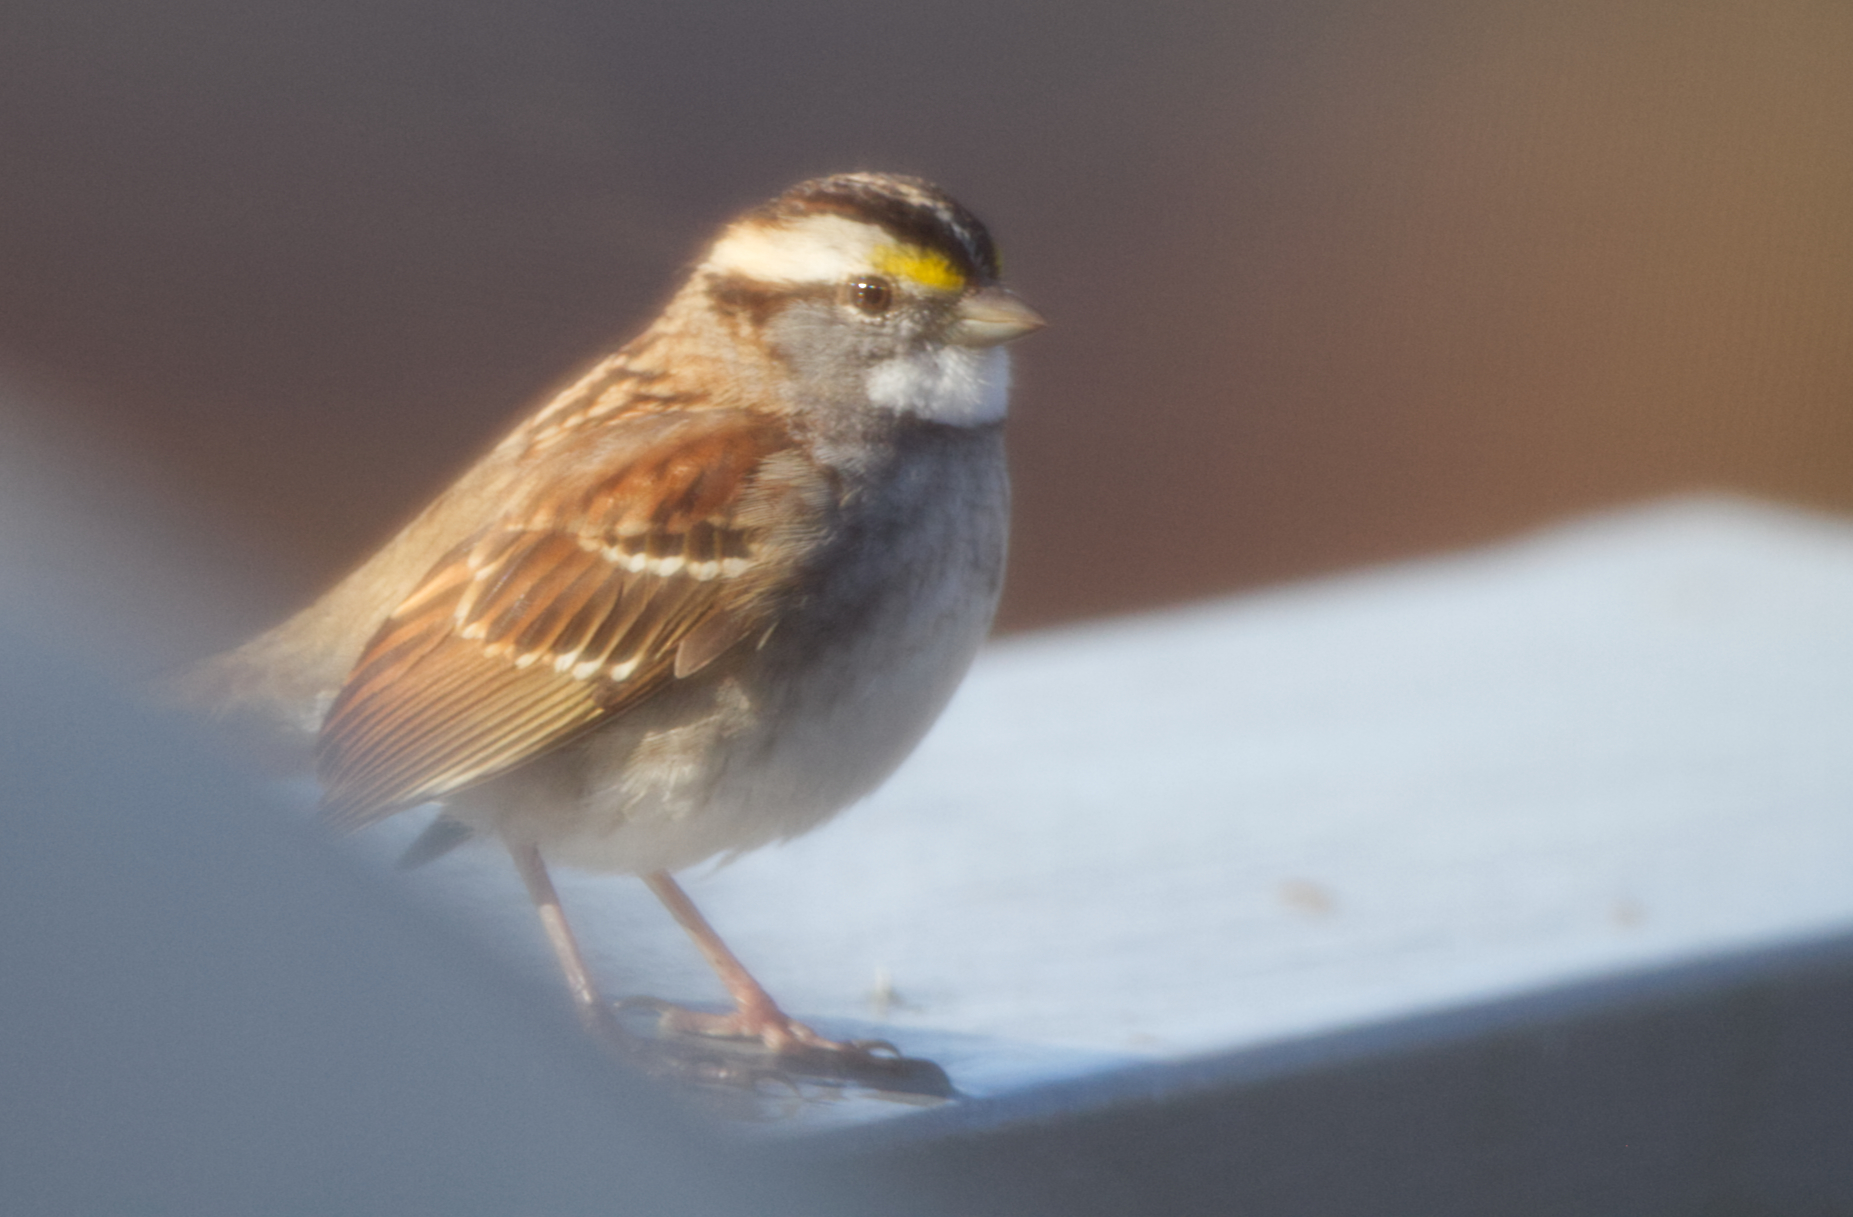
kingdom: Animalia
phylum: Chordata
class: Aves
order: Passeriformes
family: Passerellidae
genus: Zonotrichia
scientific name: Zonotrichia albicollis
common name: White-throated sparrow
